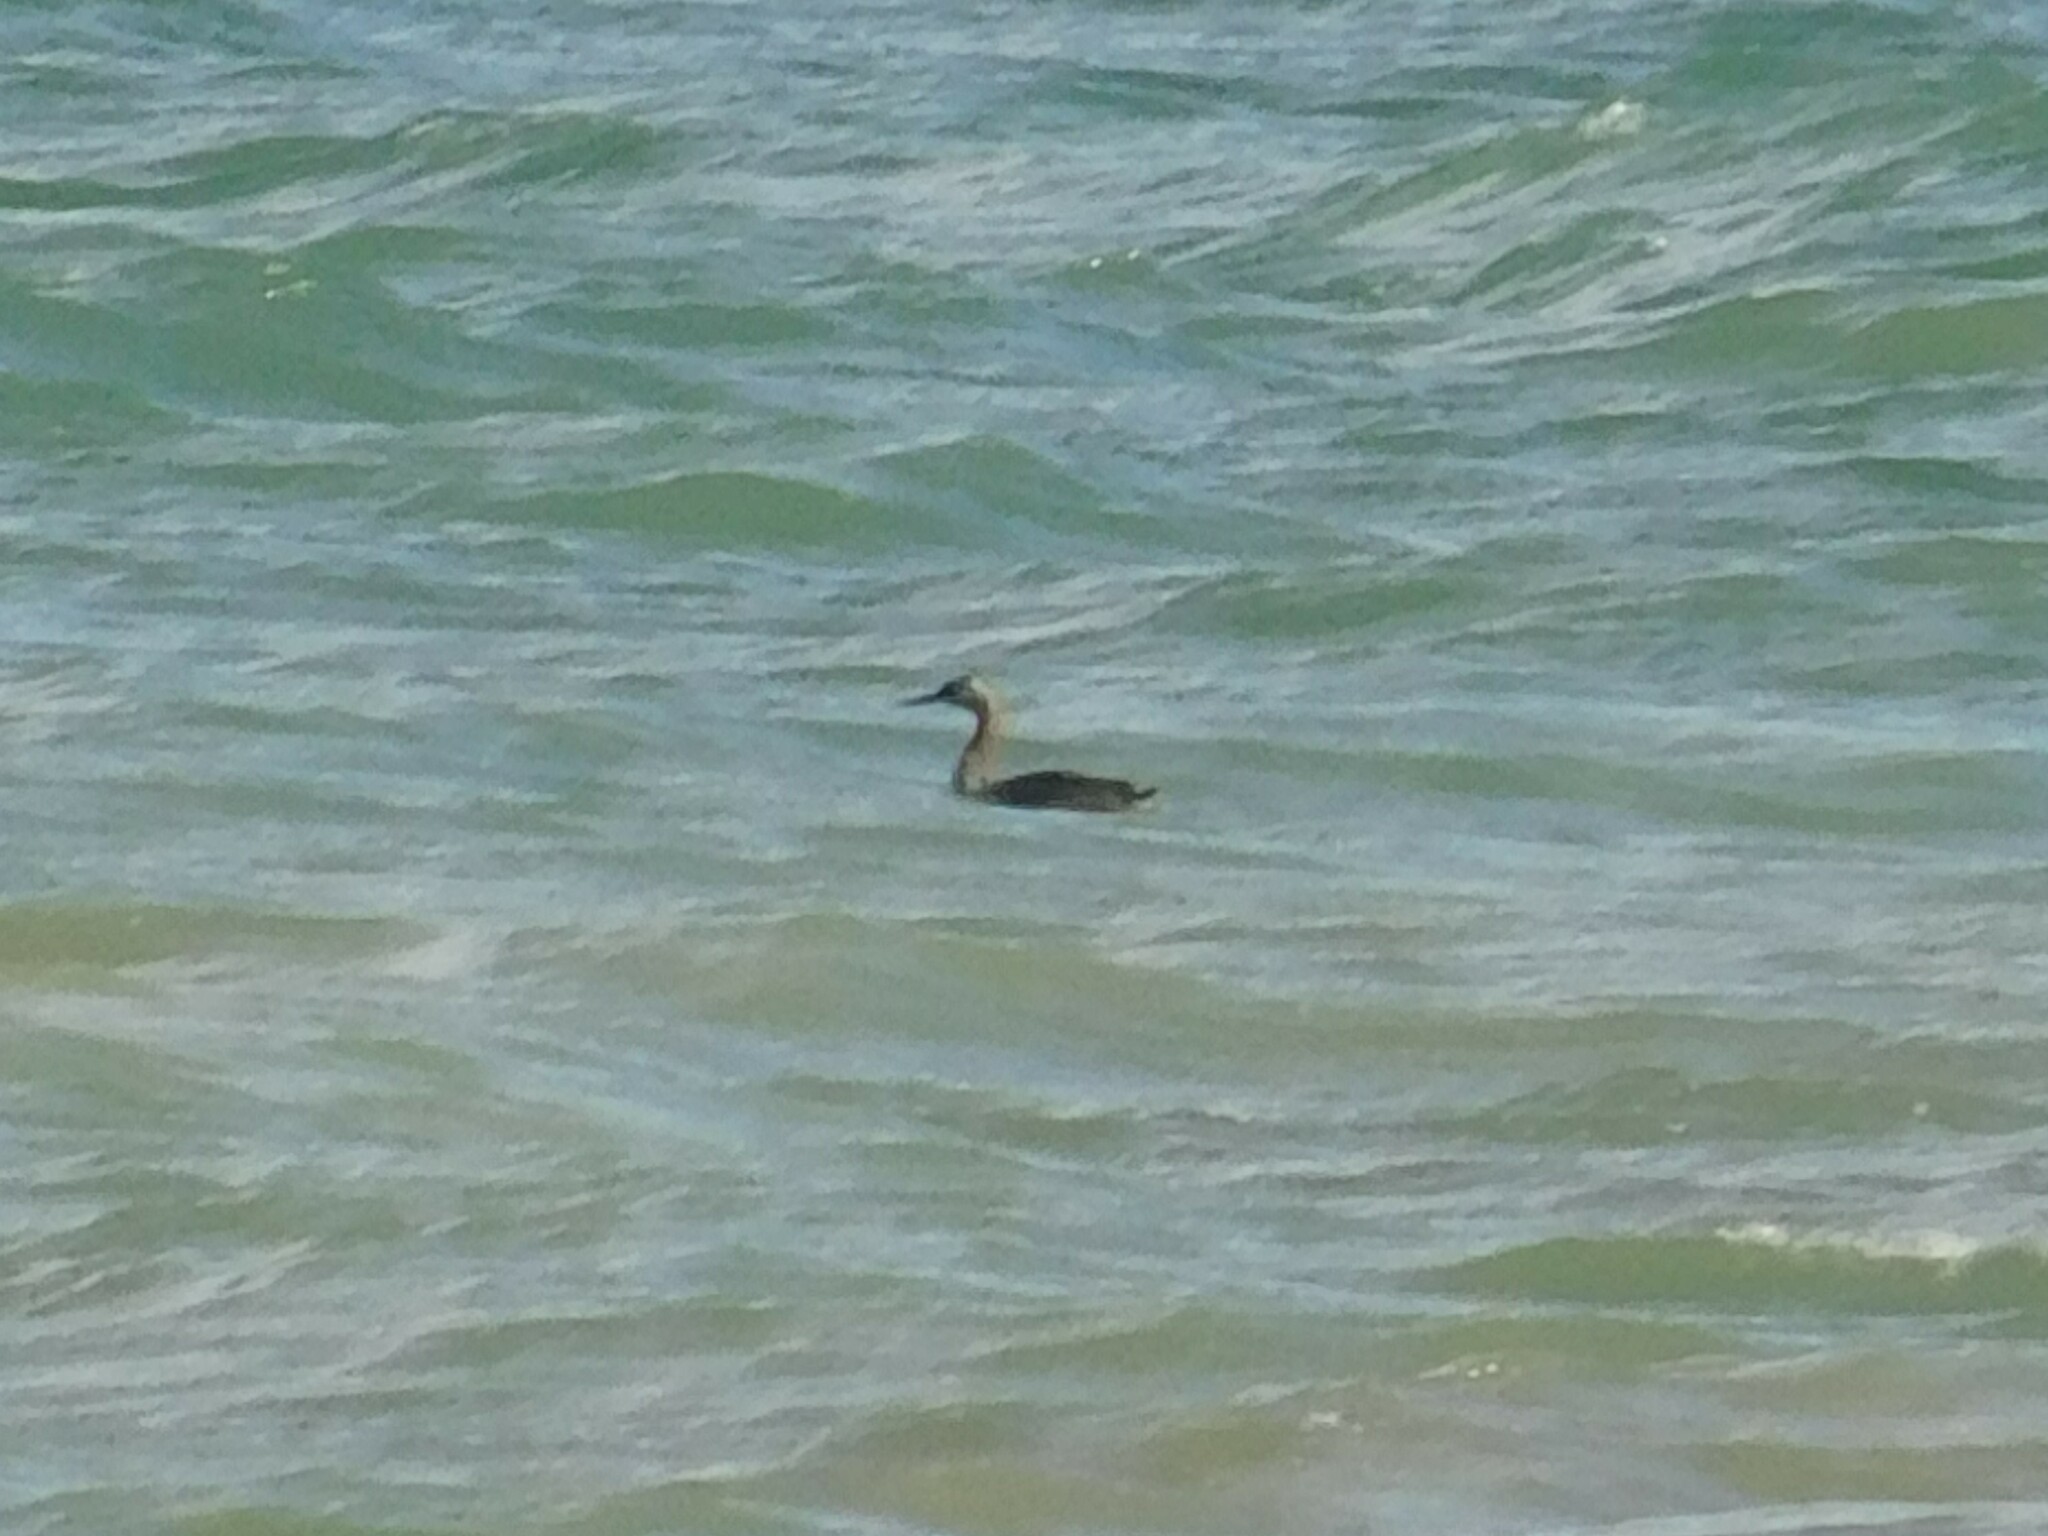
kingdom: Animalia
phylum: Chordata
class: Aves
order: Podicipediformes
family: Podicipedidae
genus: Podiceps
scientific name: Podiceps major
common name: Great grebe
